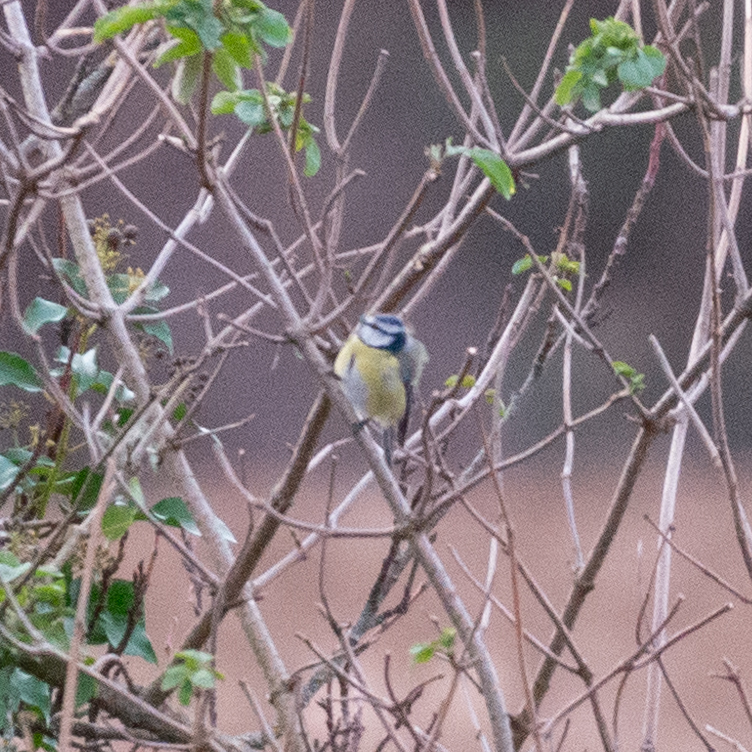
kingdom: Animalia
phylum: Chordata
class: Aves
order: Passeriformes
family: Paridae
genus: Cyanistes
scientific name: Cyanistes caeruleus
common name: Eurasian blue tit
